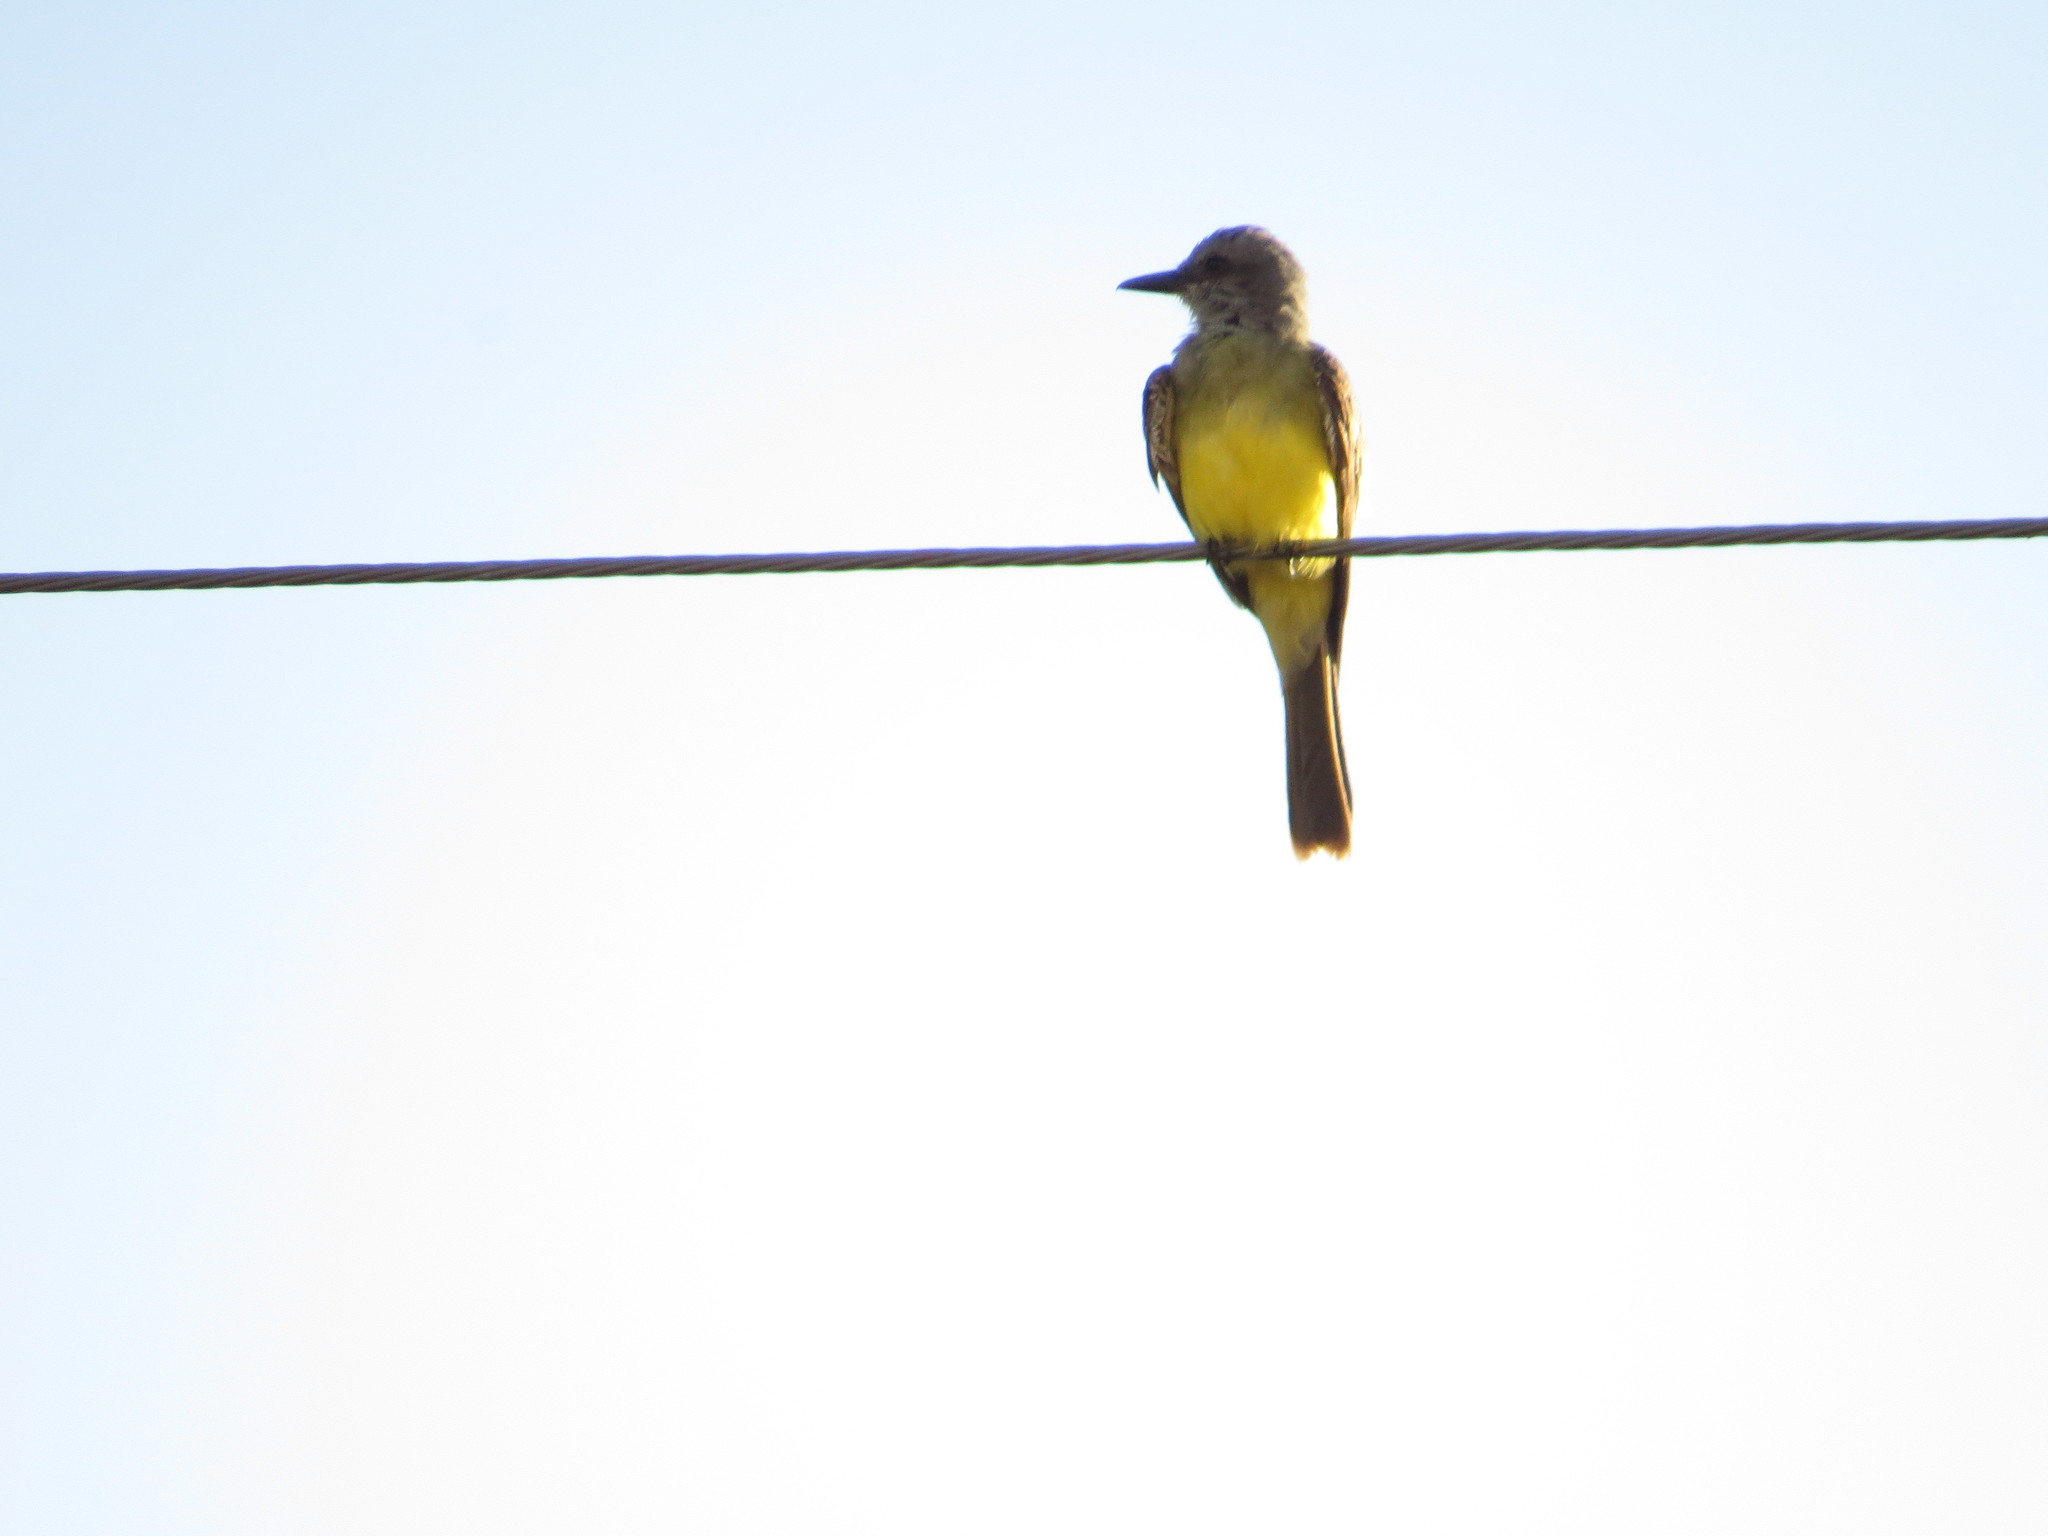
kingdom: Animalia
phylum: Chordata
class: Aves
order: Passeriformes
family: Tyrannidae
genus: Tyrannus
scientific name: Tyrannus melancholicus
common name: Tropical kingbird
